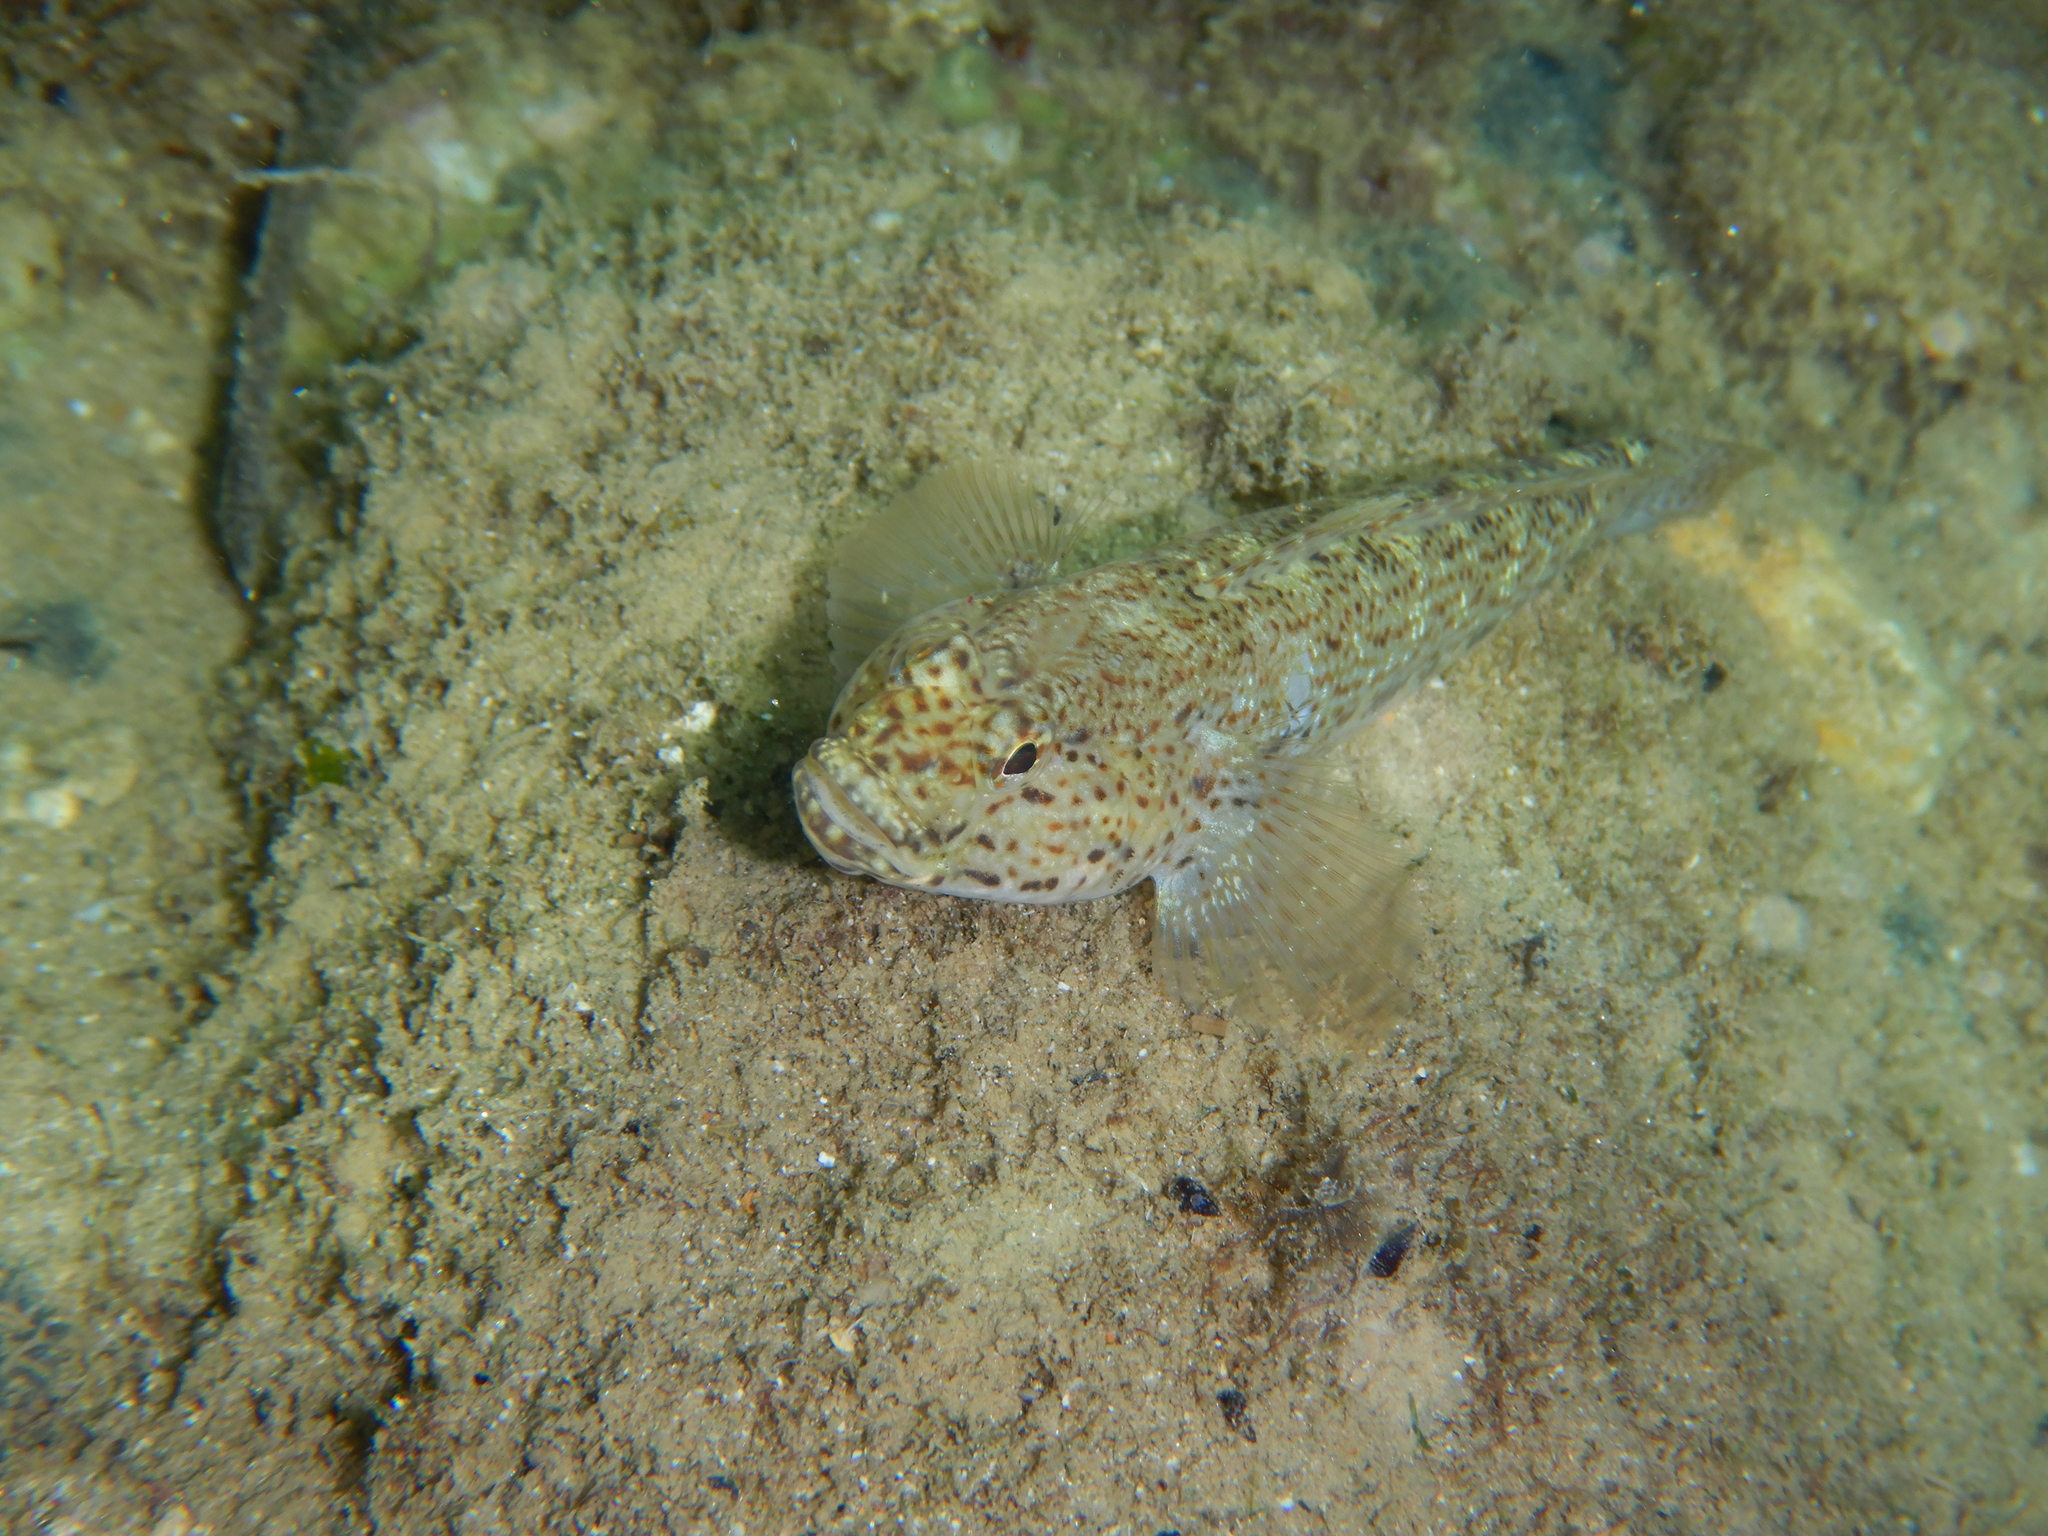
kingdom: Animalia
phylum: Chordata
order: Perciformes
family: Gobiidae
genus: Gobius
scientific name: Gobius incognitus
